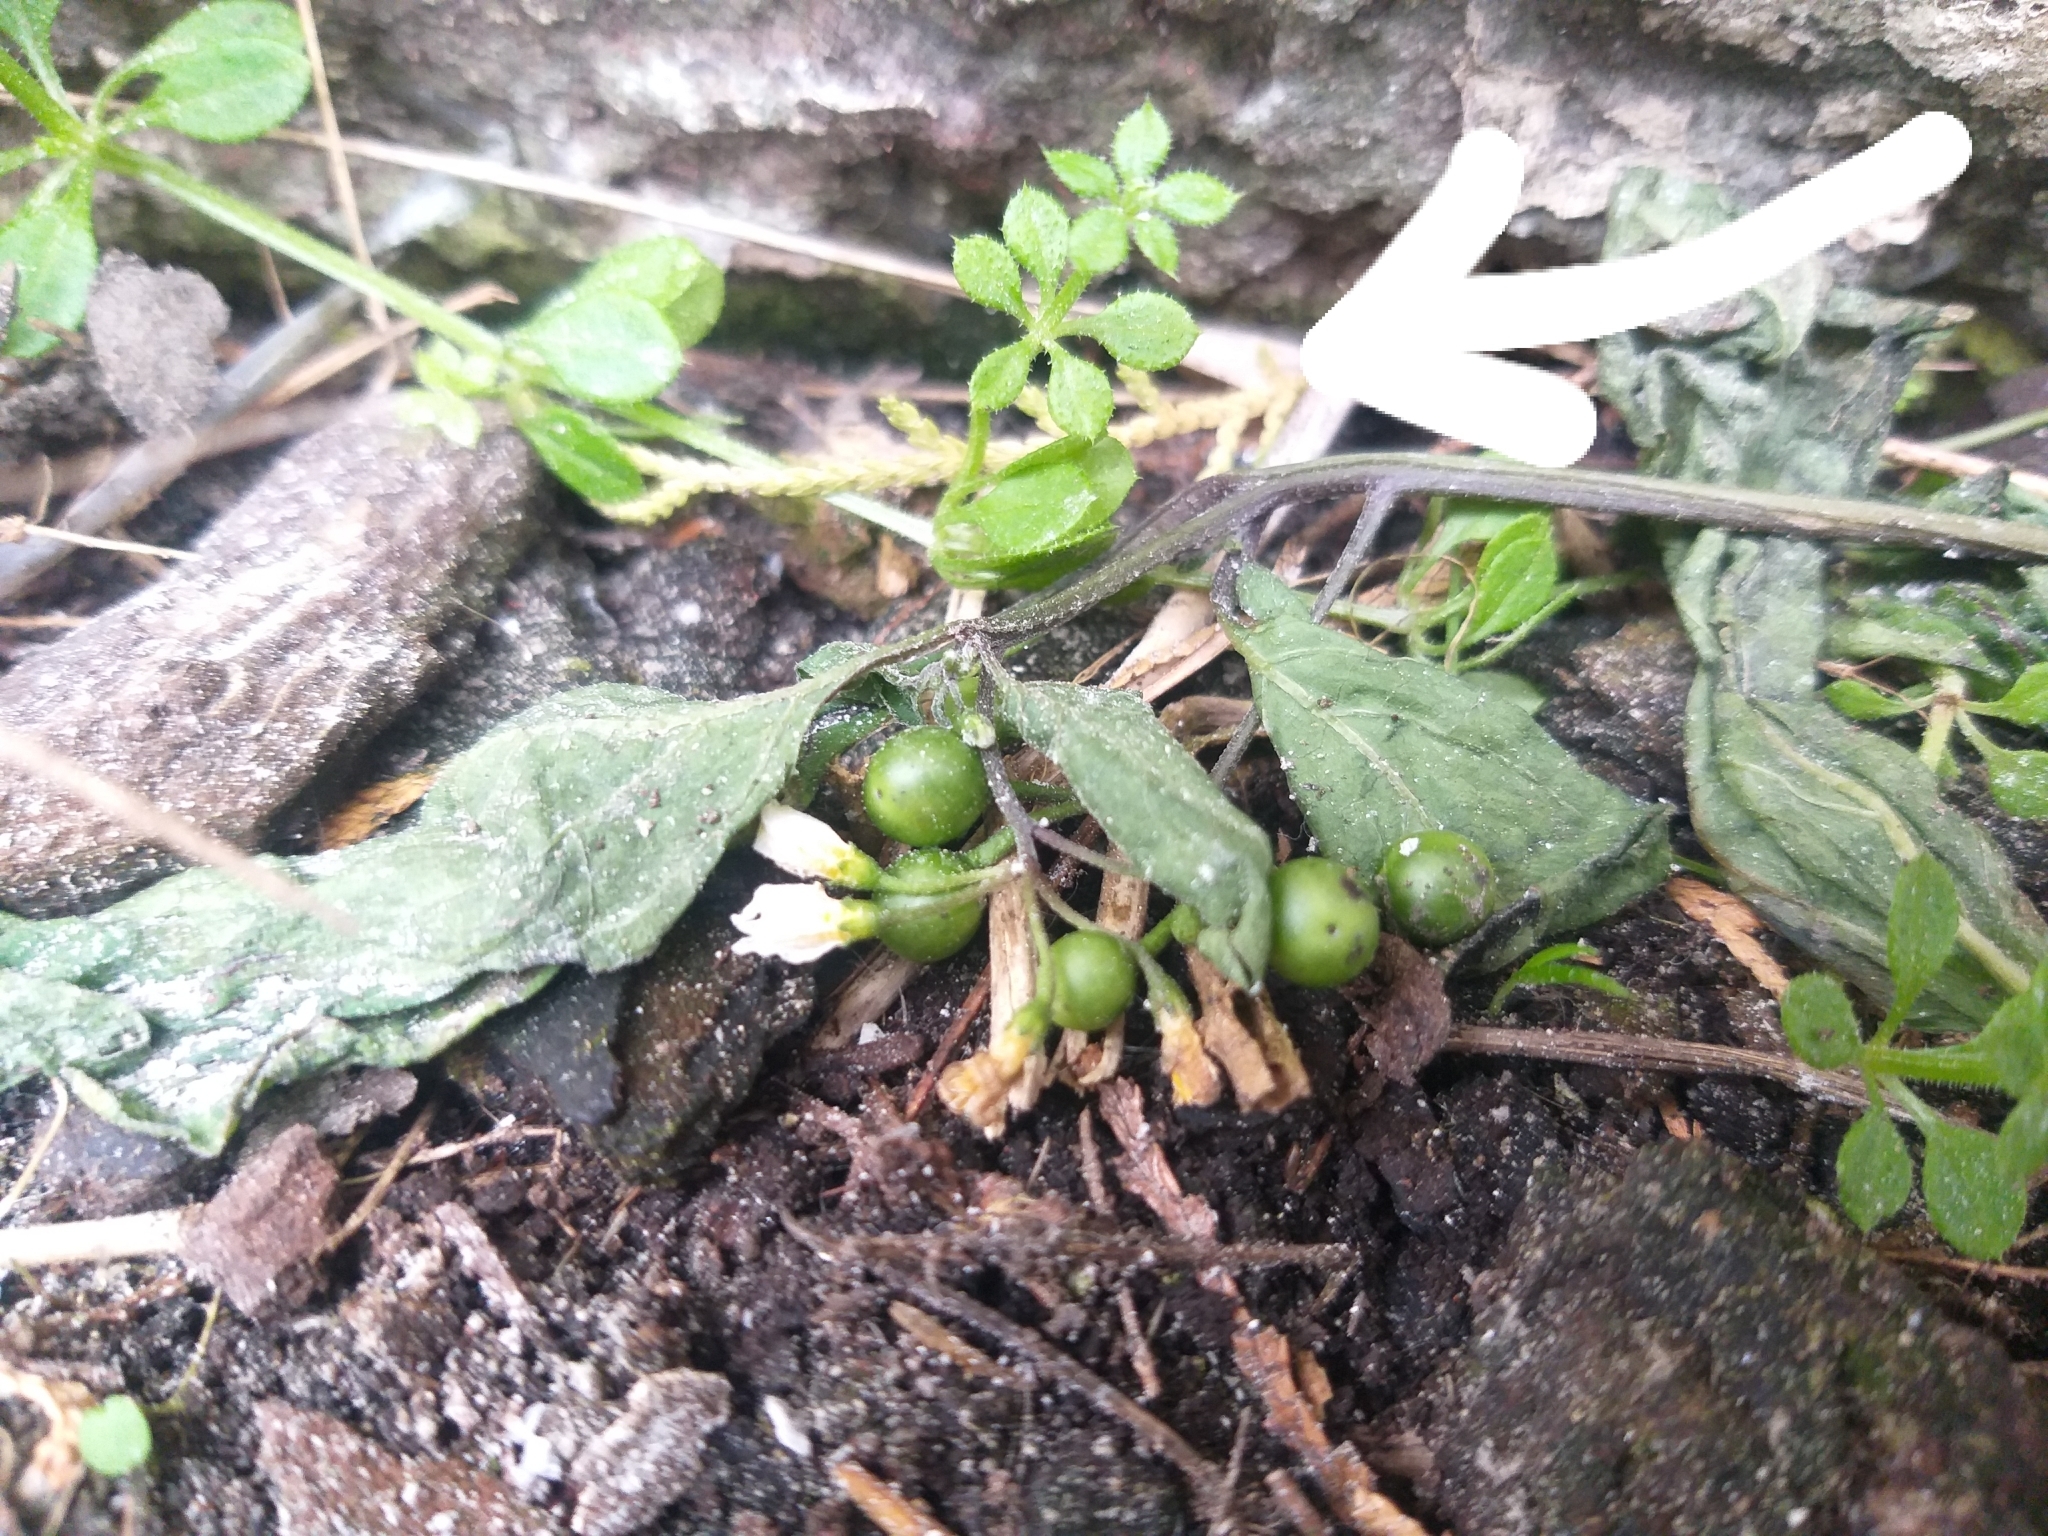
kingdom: Plantae
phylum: Tracheophyta
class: Magnoliopsida
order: Gentianales
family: Rubiaceae
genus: Galium
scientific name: Galium aparine
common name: Cleavers
